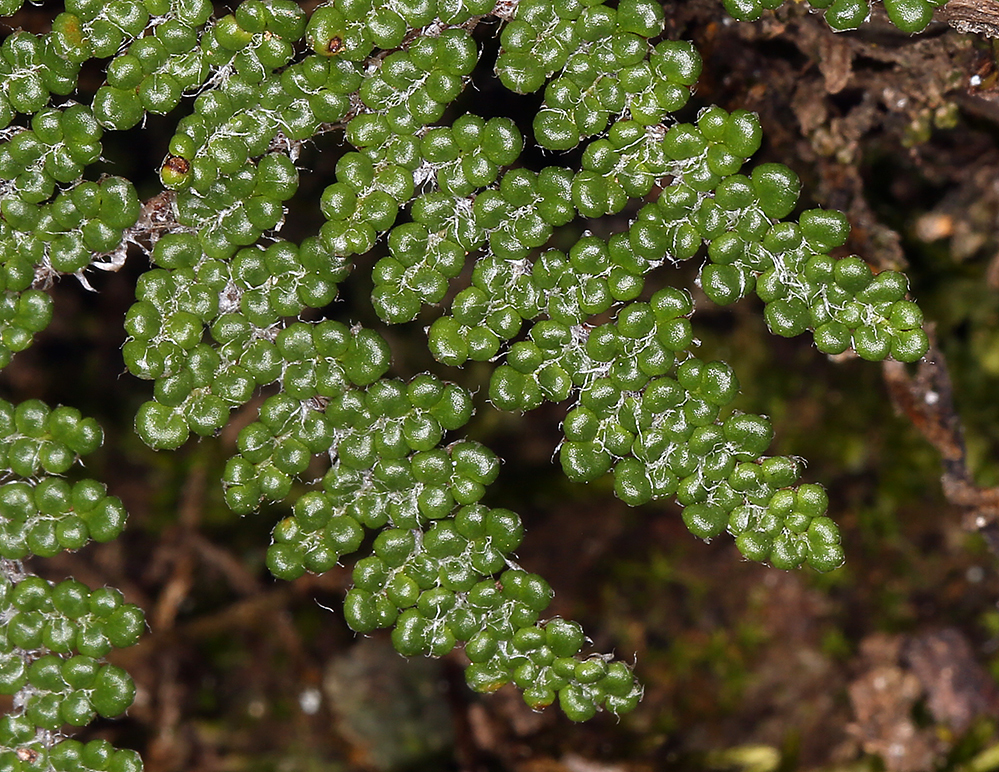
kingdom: Plantae
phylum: Tracheophyta
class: Polypodiopsida
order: Polypodiales
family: Pteridaceae
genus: Myriopteris
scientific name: Myriopteris covillei
